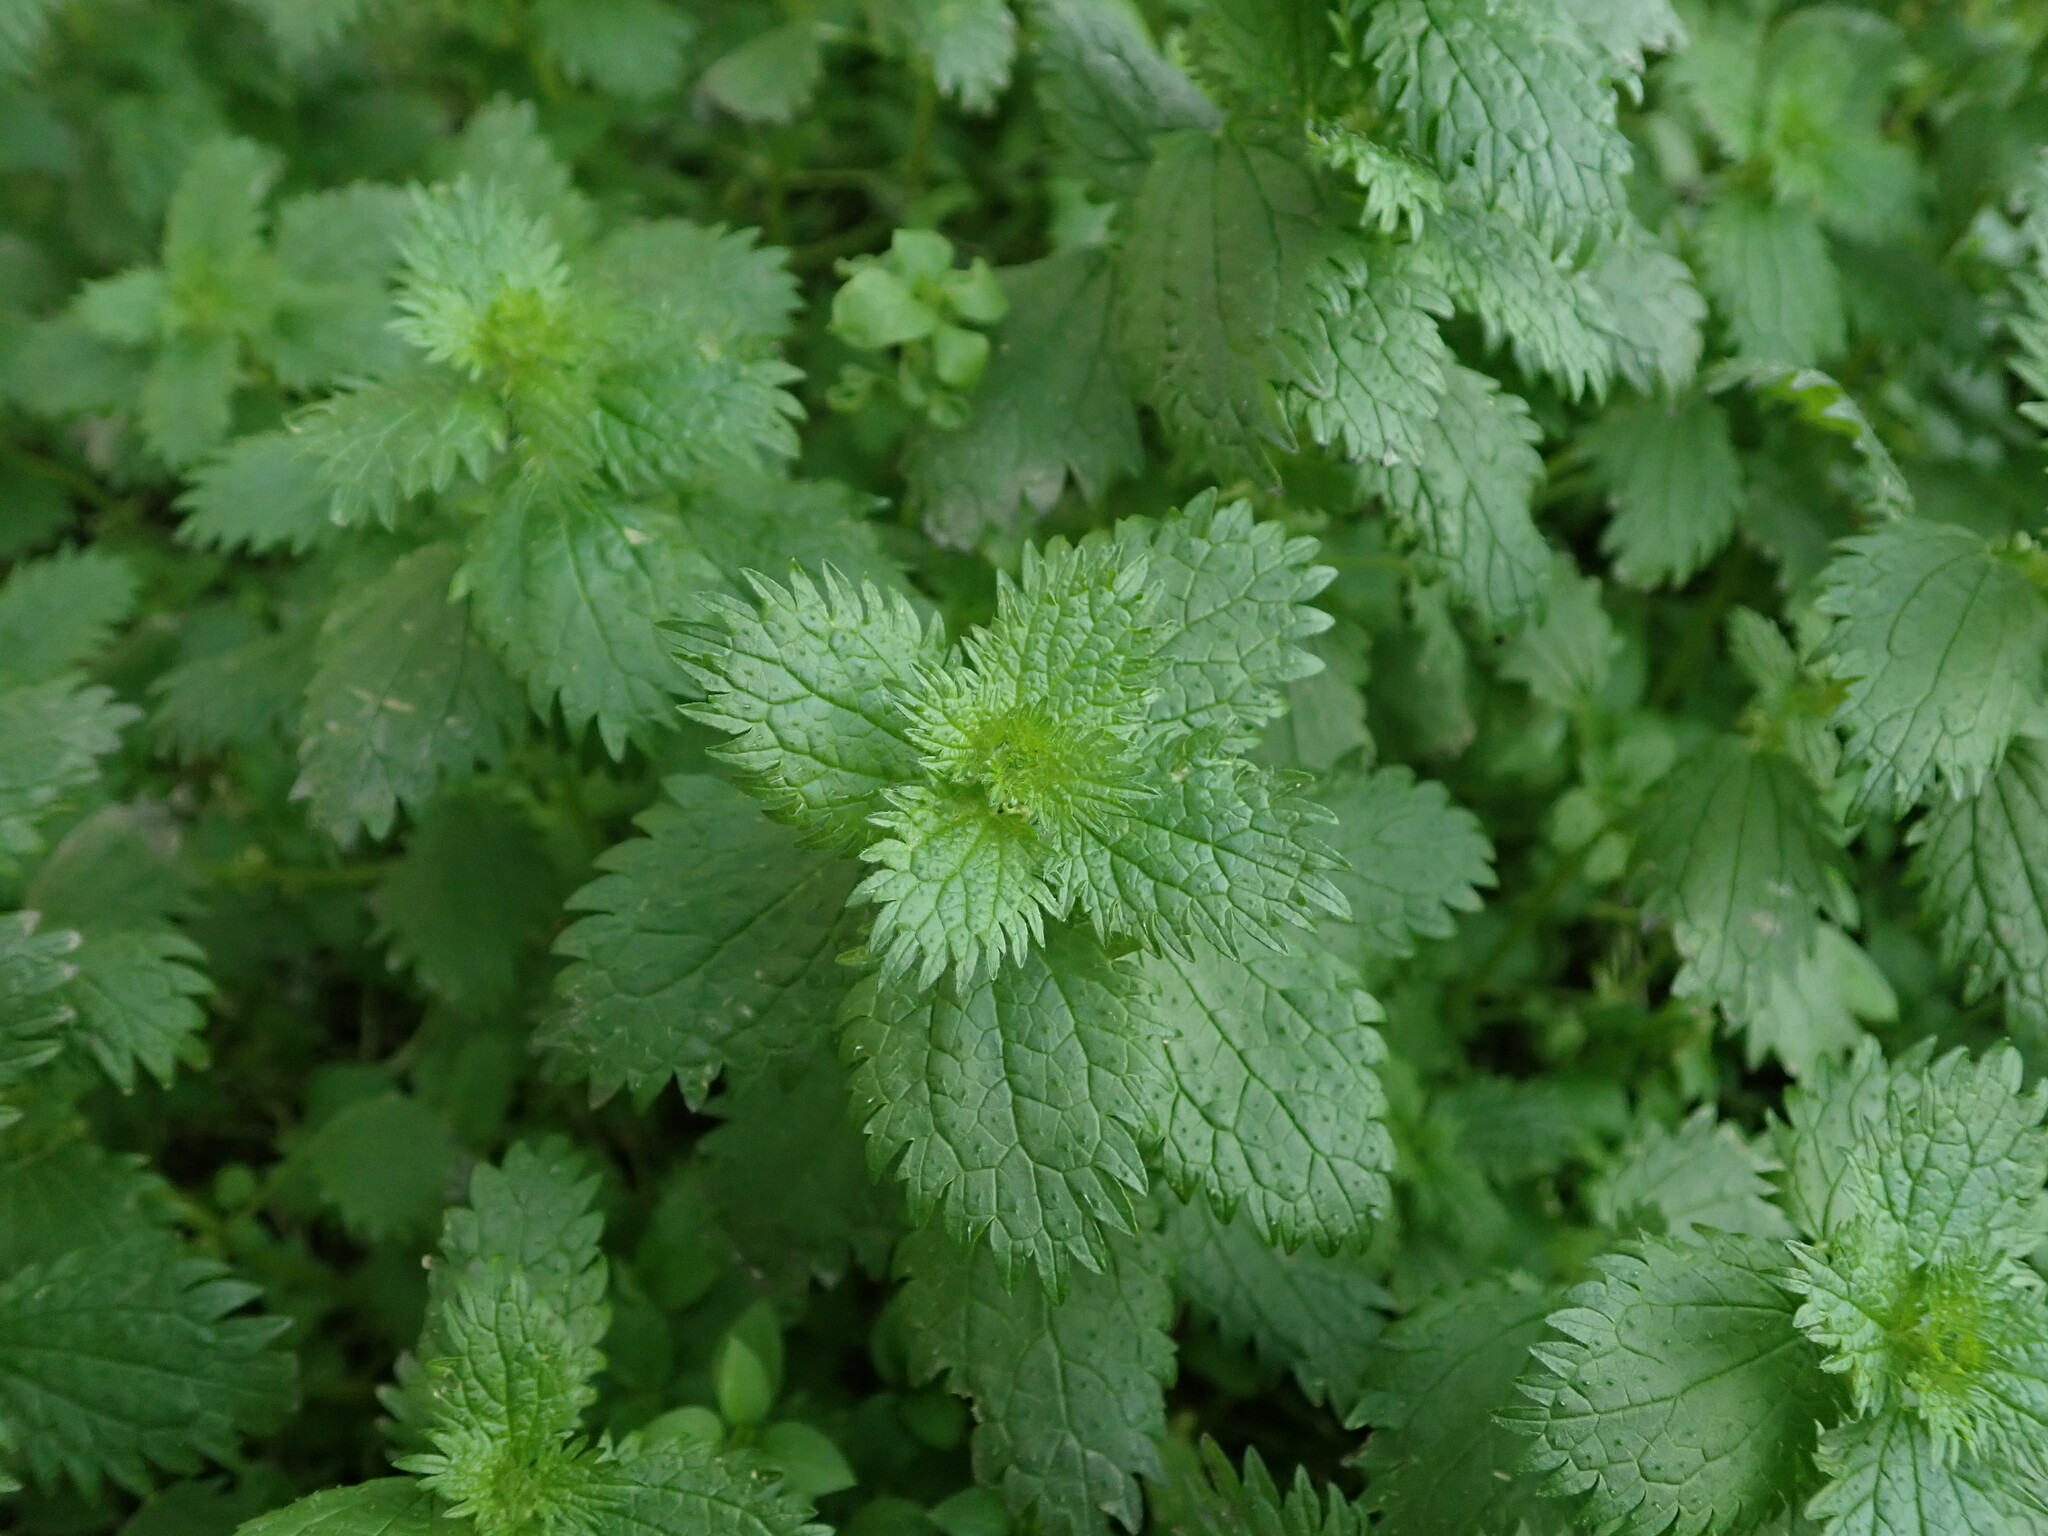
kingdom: Plantae
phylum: Tracheophyta
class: Magnoliopsida
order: Rosales
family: Urticaceae
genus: Urtica
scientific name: Urtica urens
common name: Dwarf nettle
